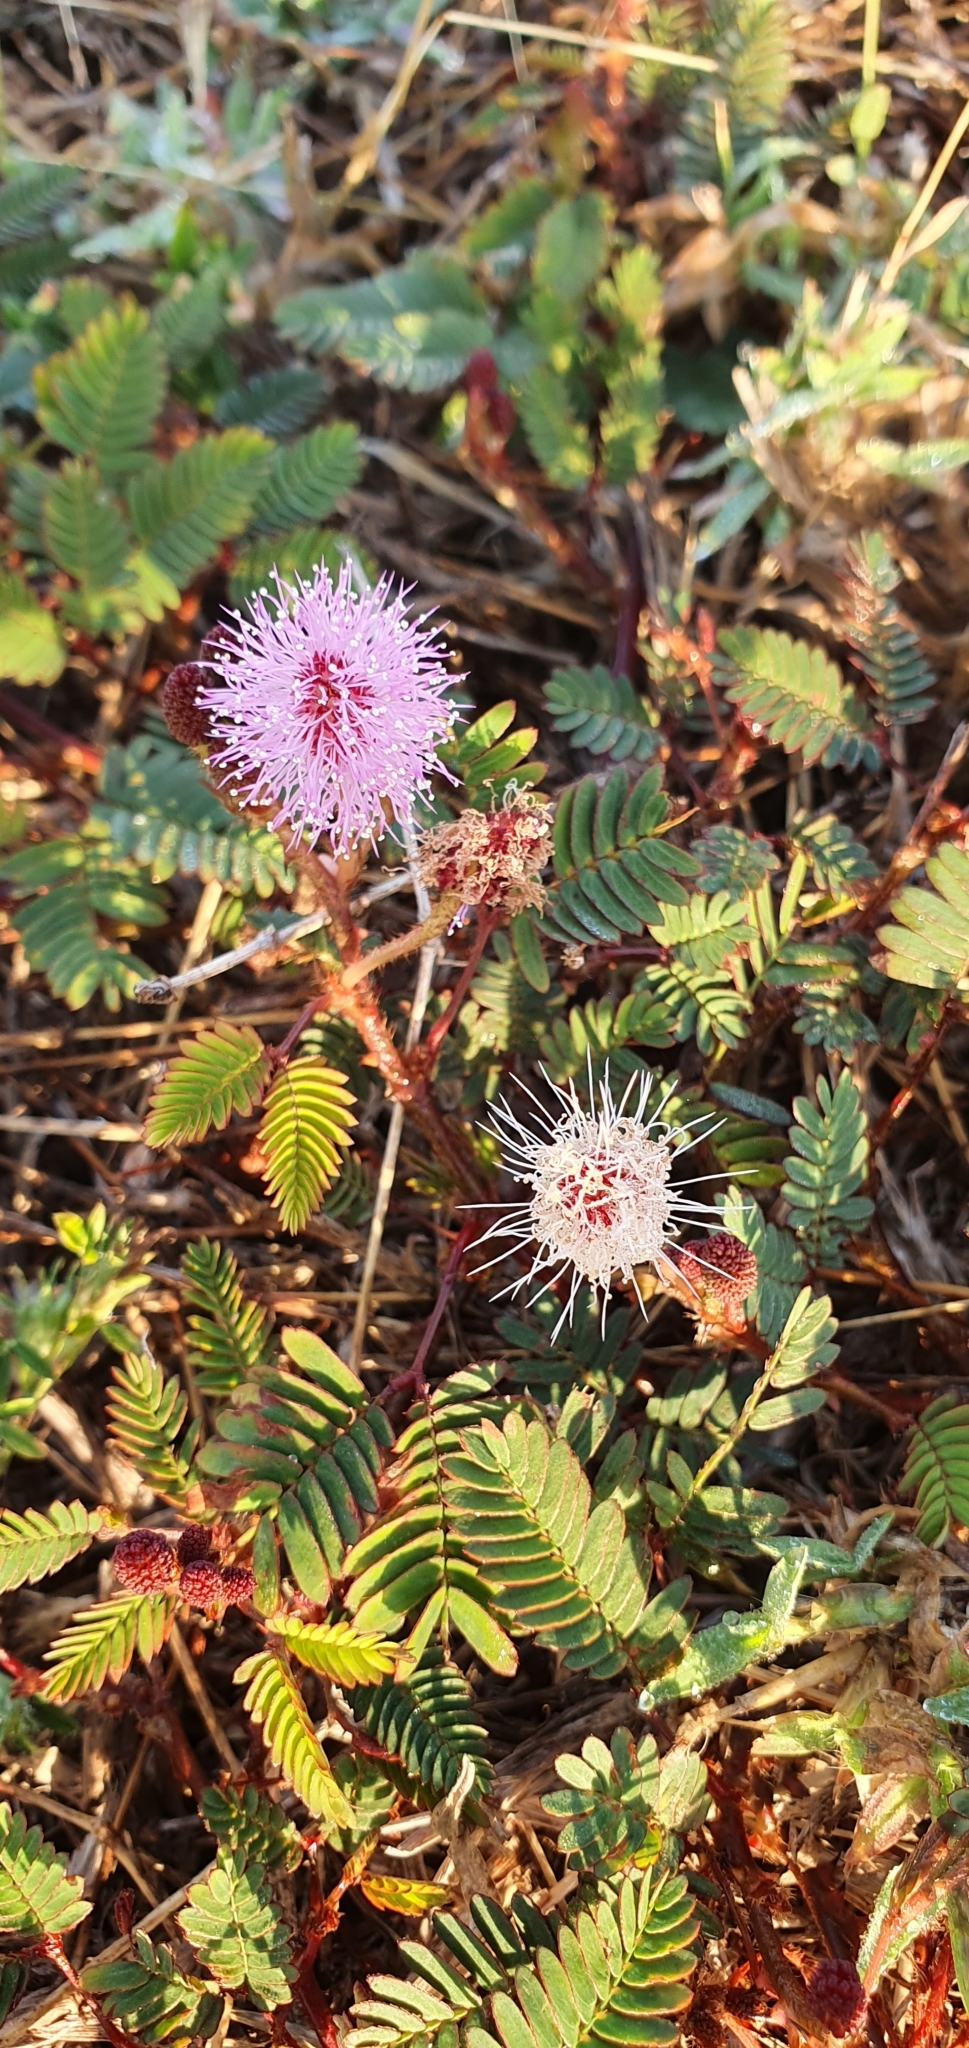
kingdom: Plantae
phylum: Tracheophyta
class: Magnoliopsida
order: Fabales
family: Fabaceae
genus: Mimosa
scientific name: Mimosa pudica
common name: Sensitive plant
